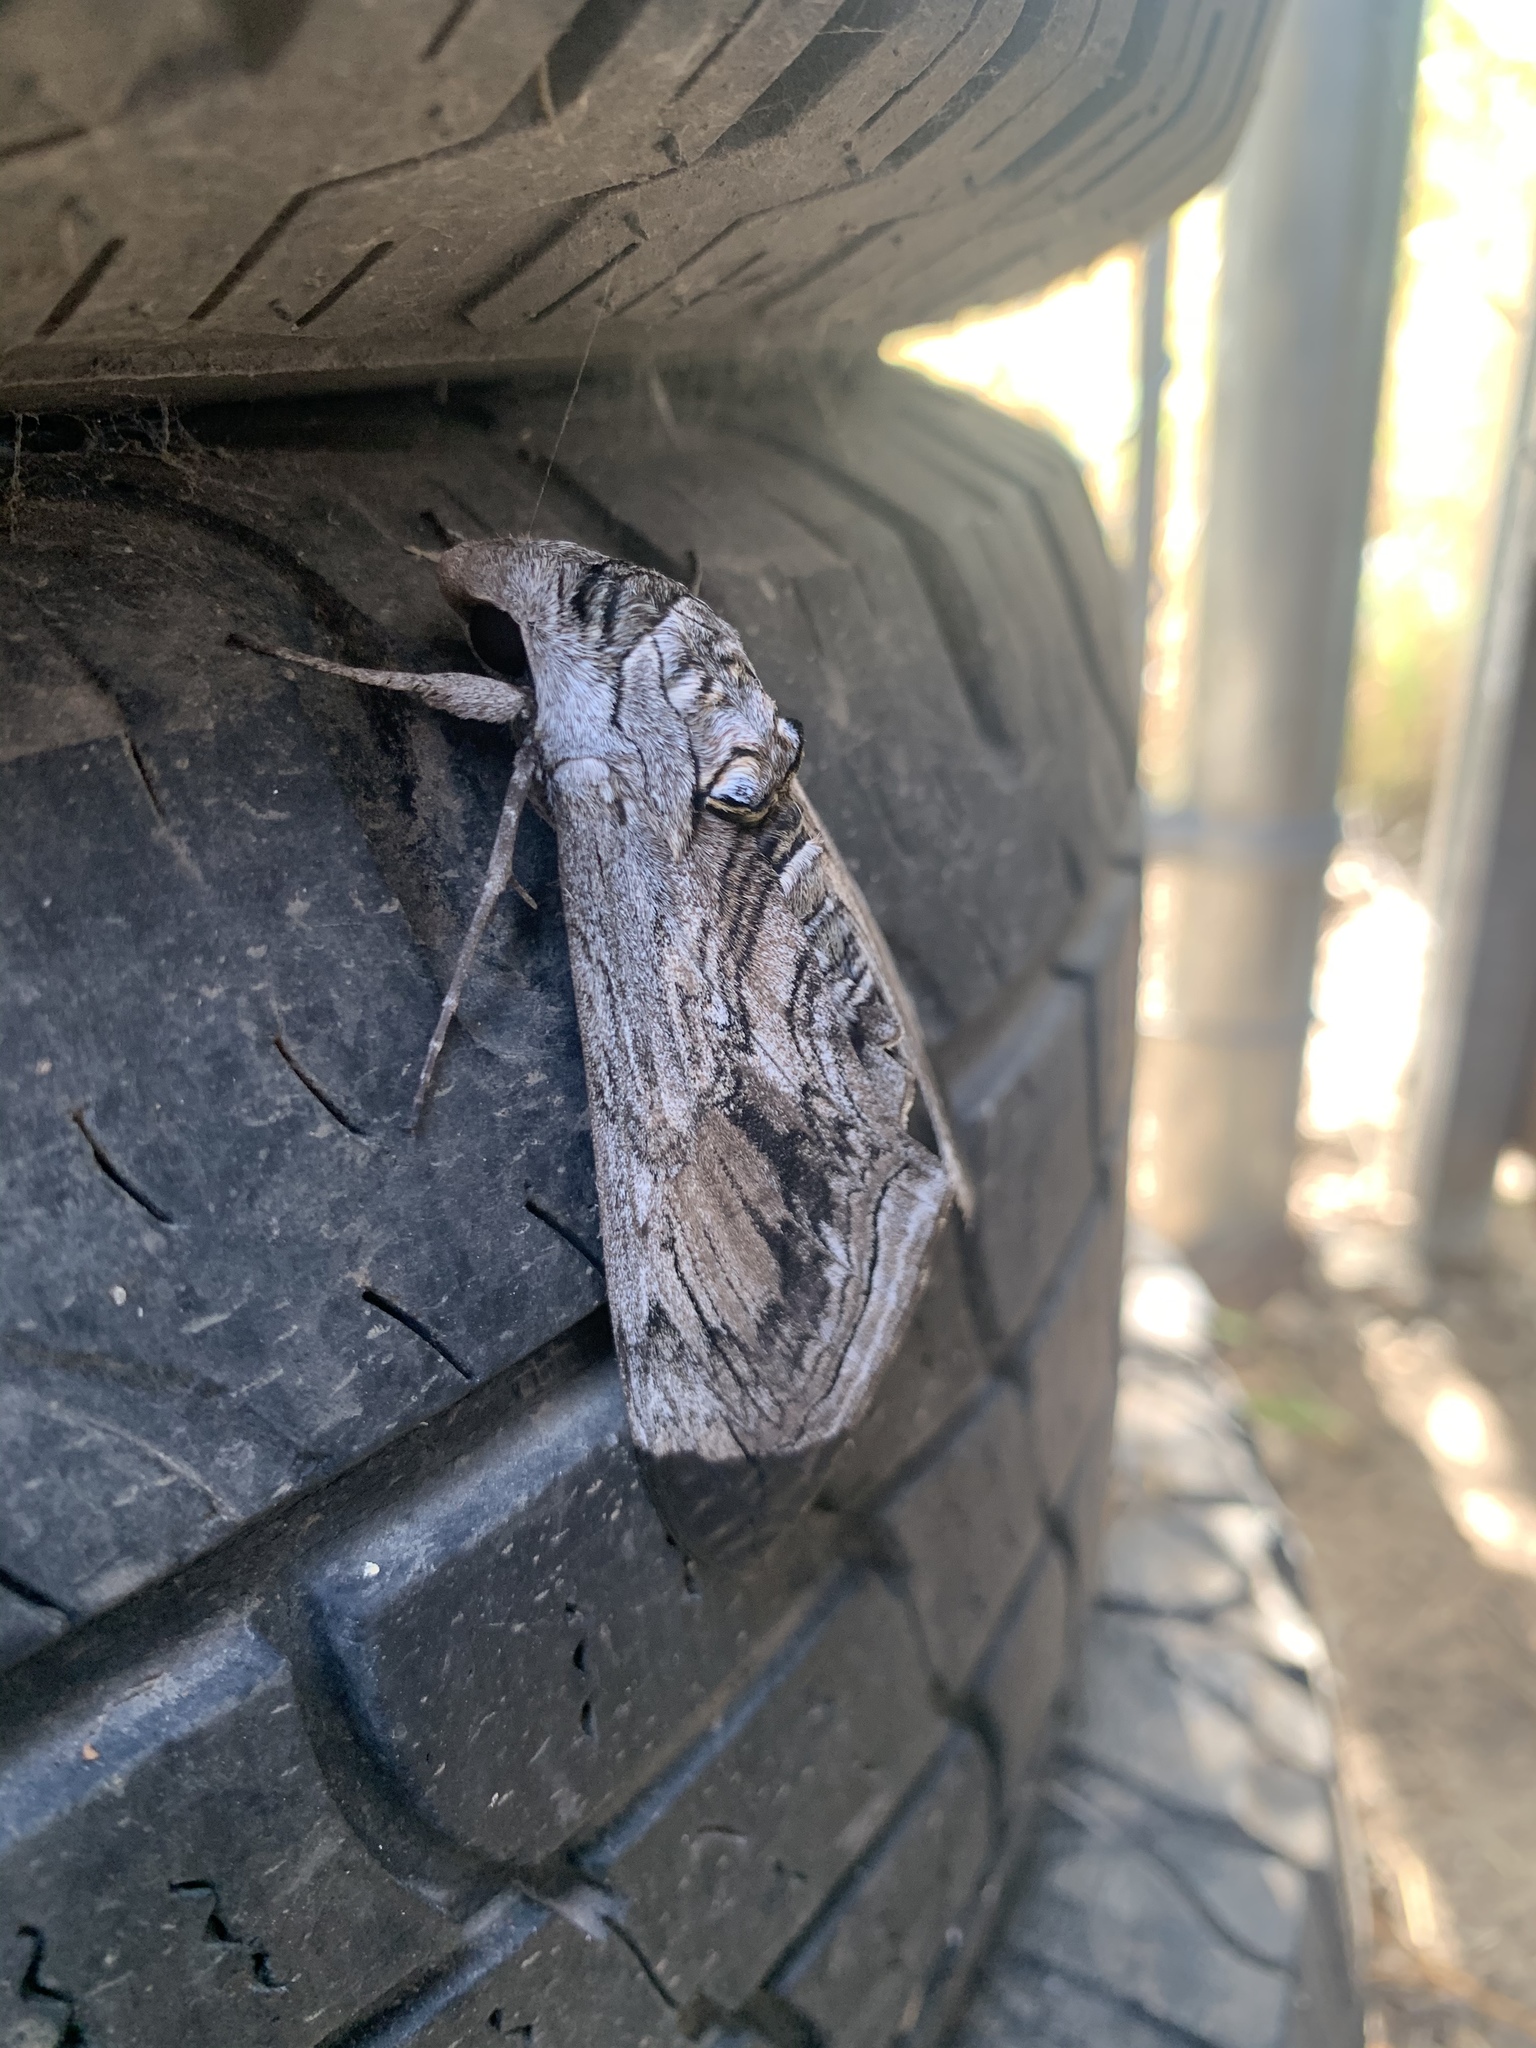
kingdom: Animalia
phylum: Arthropoda
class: Insecta
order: Lepidoptera
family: Sphingidae
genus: Manduca
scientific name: Manduca quinquemaculatus
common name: Five-spotted hawk-moth
